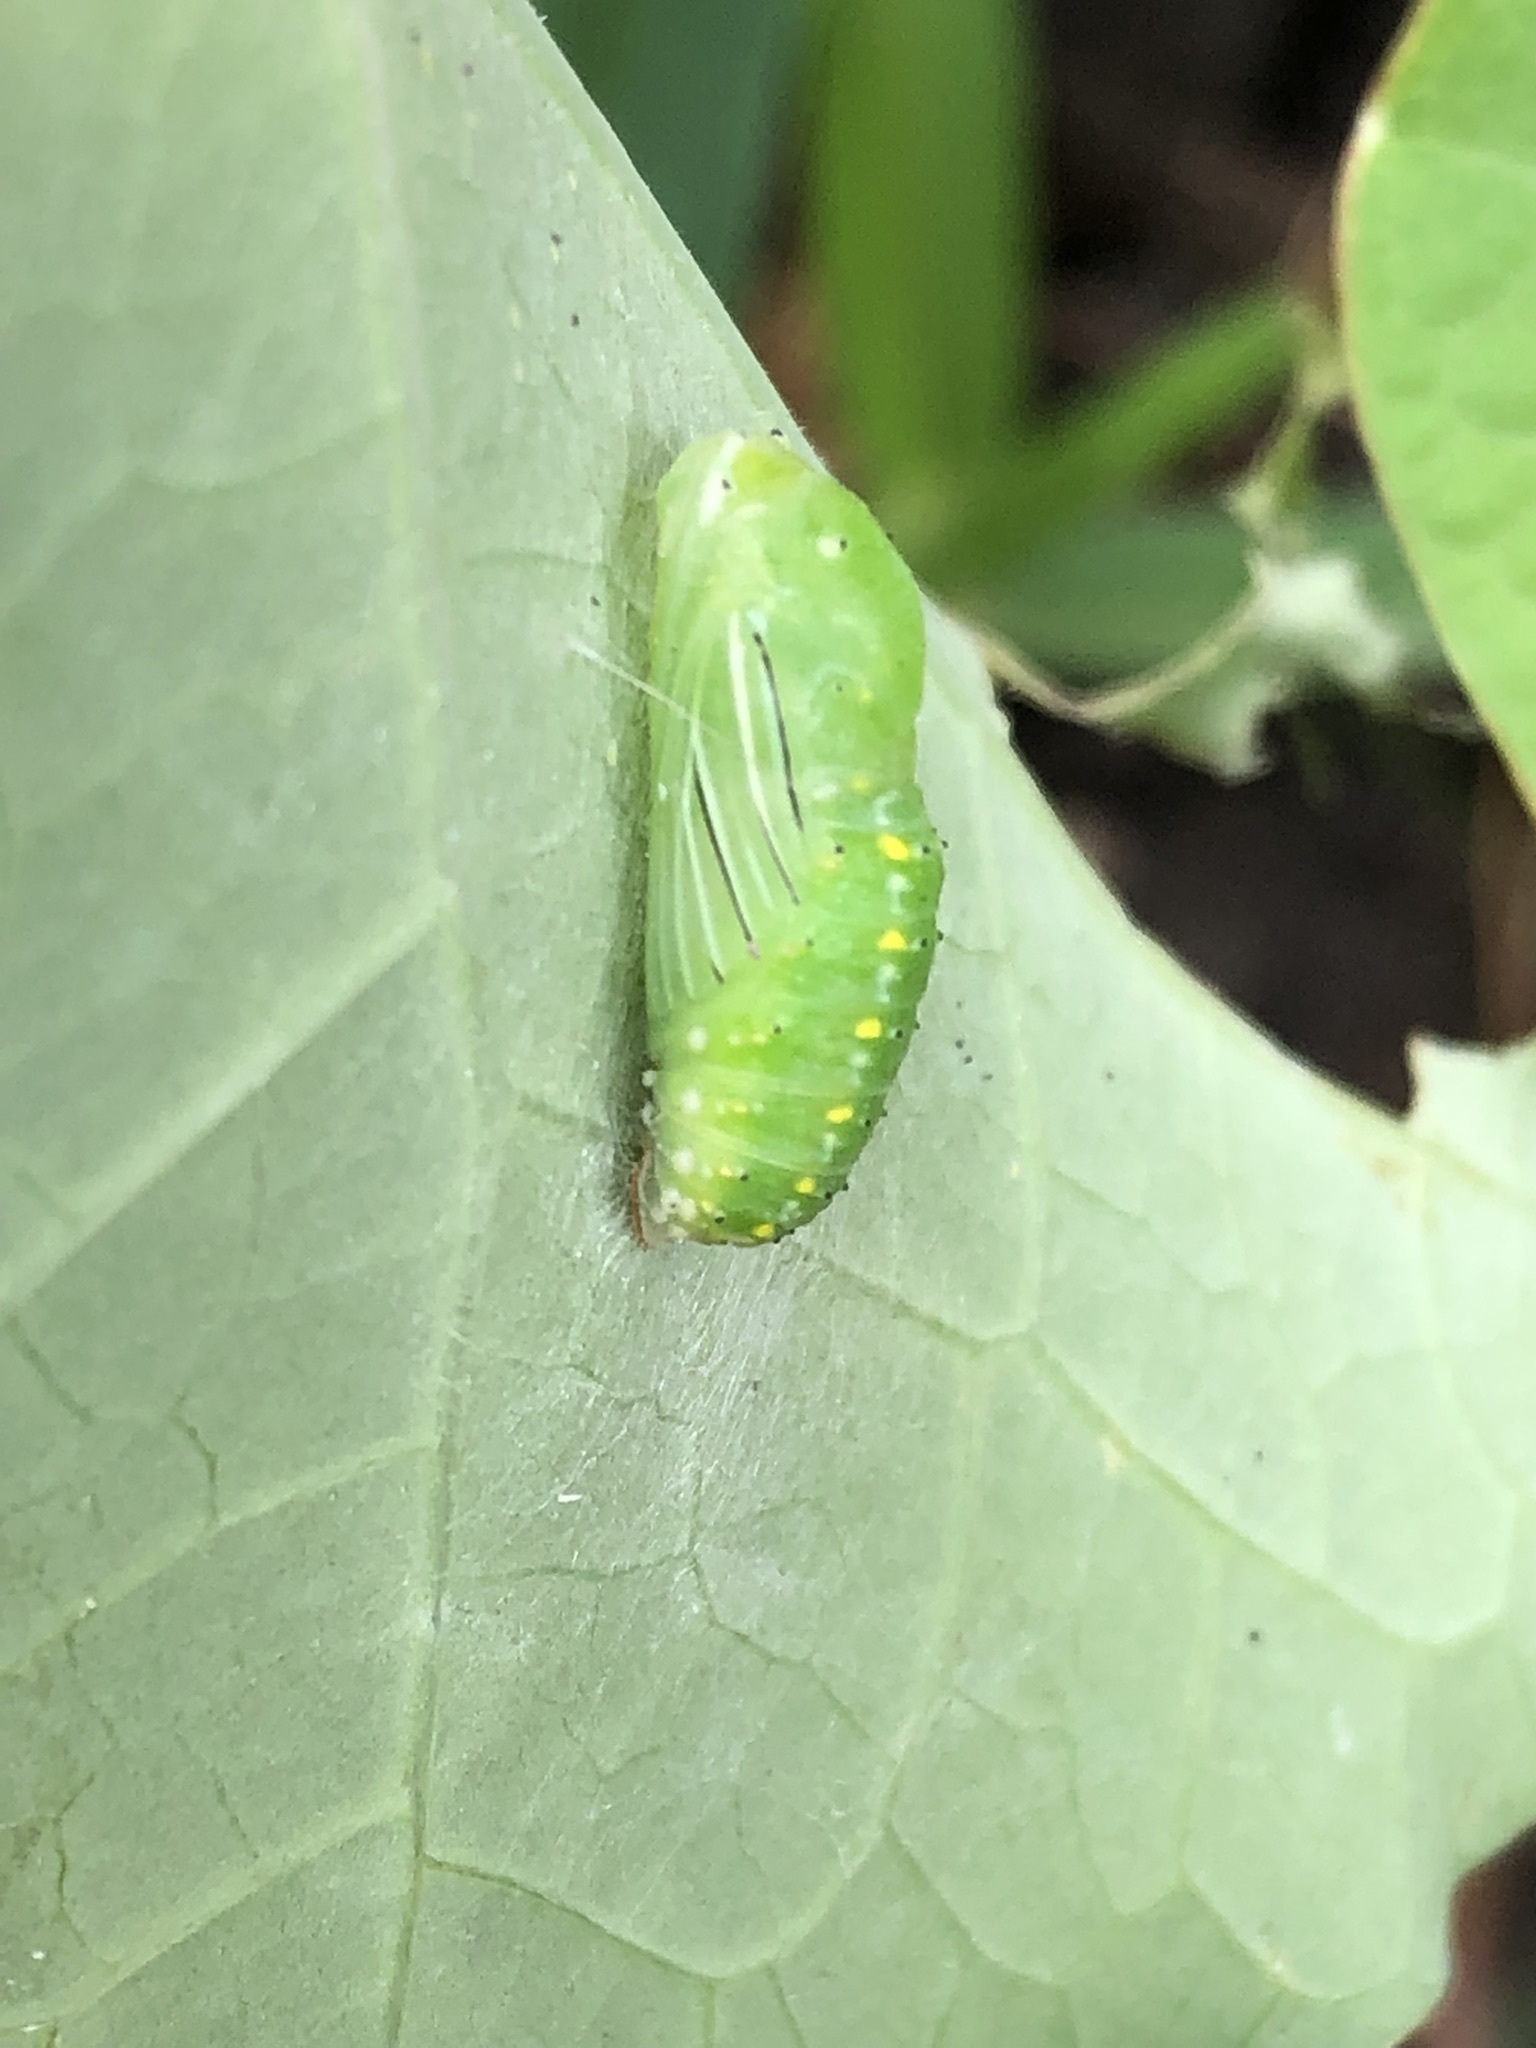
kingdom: Animalia
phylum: Arthropoda
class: Insecta
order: Lepidoptera
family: Lycaenidae
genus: Melanis
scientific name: Melanis
